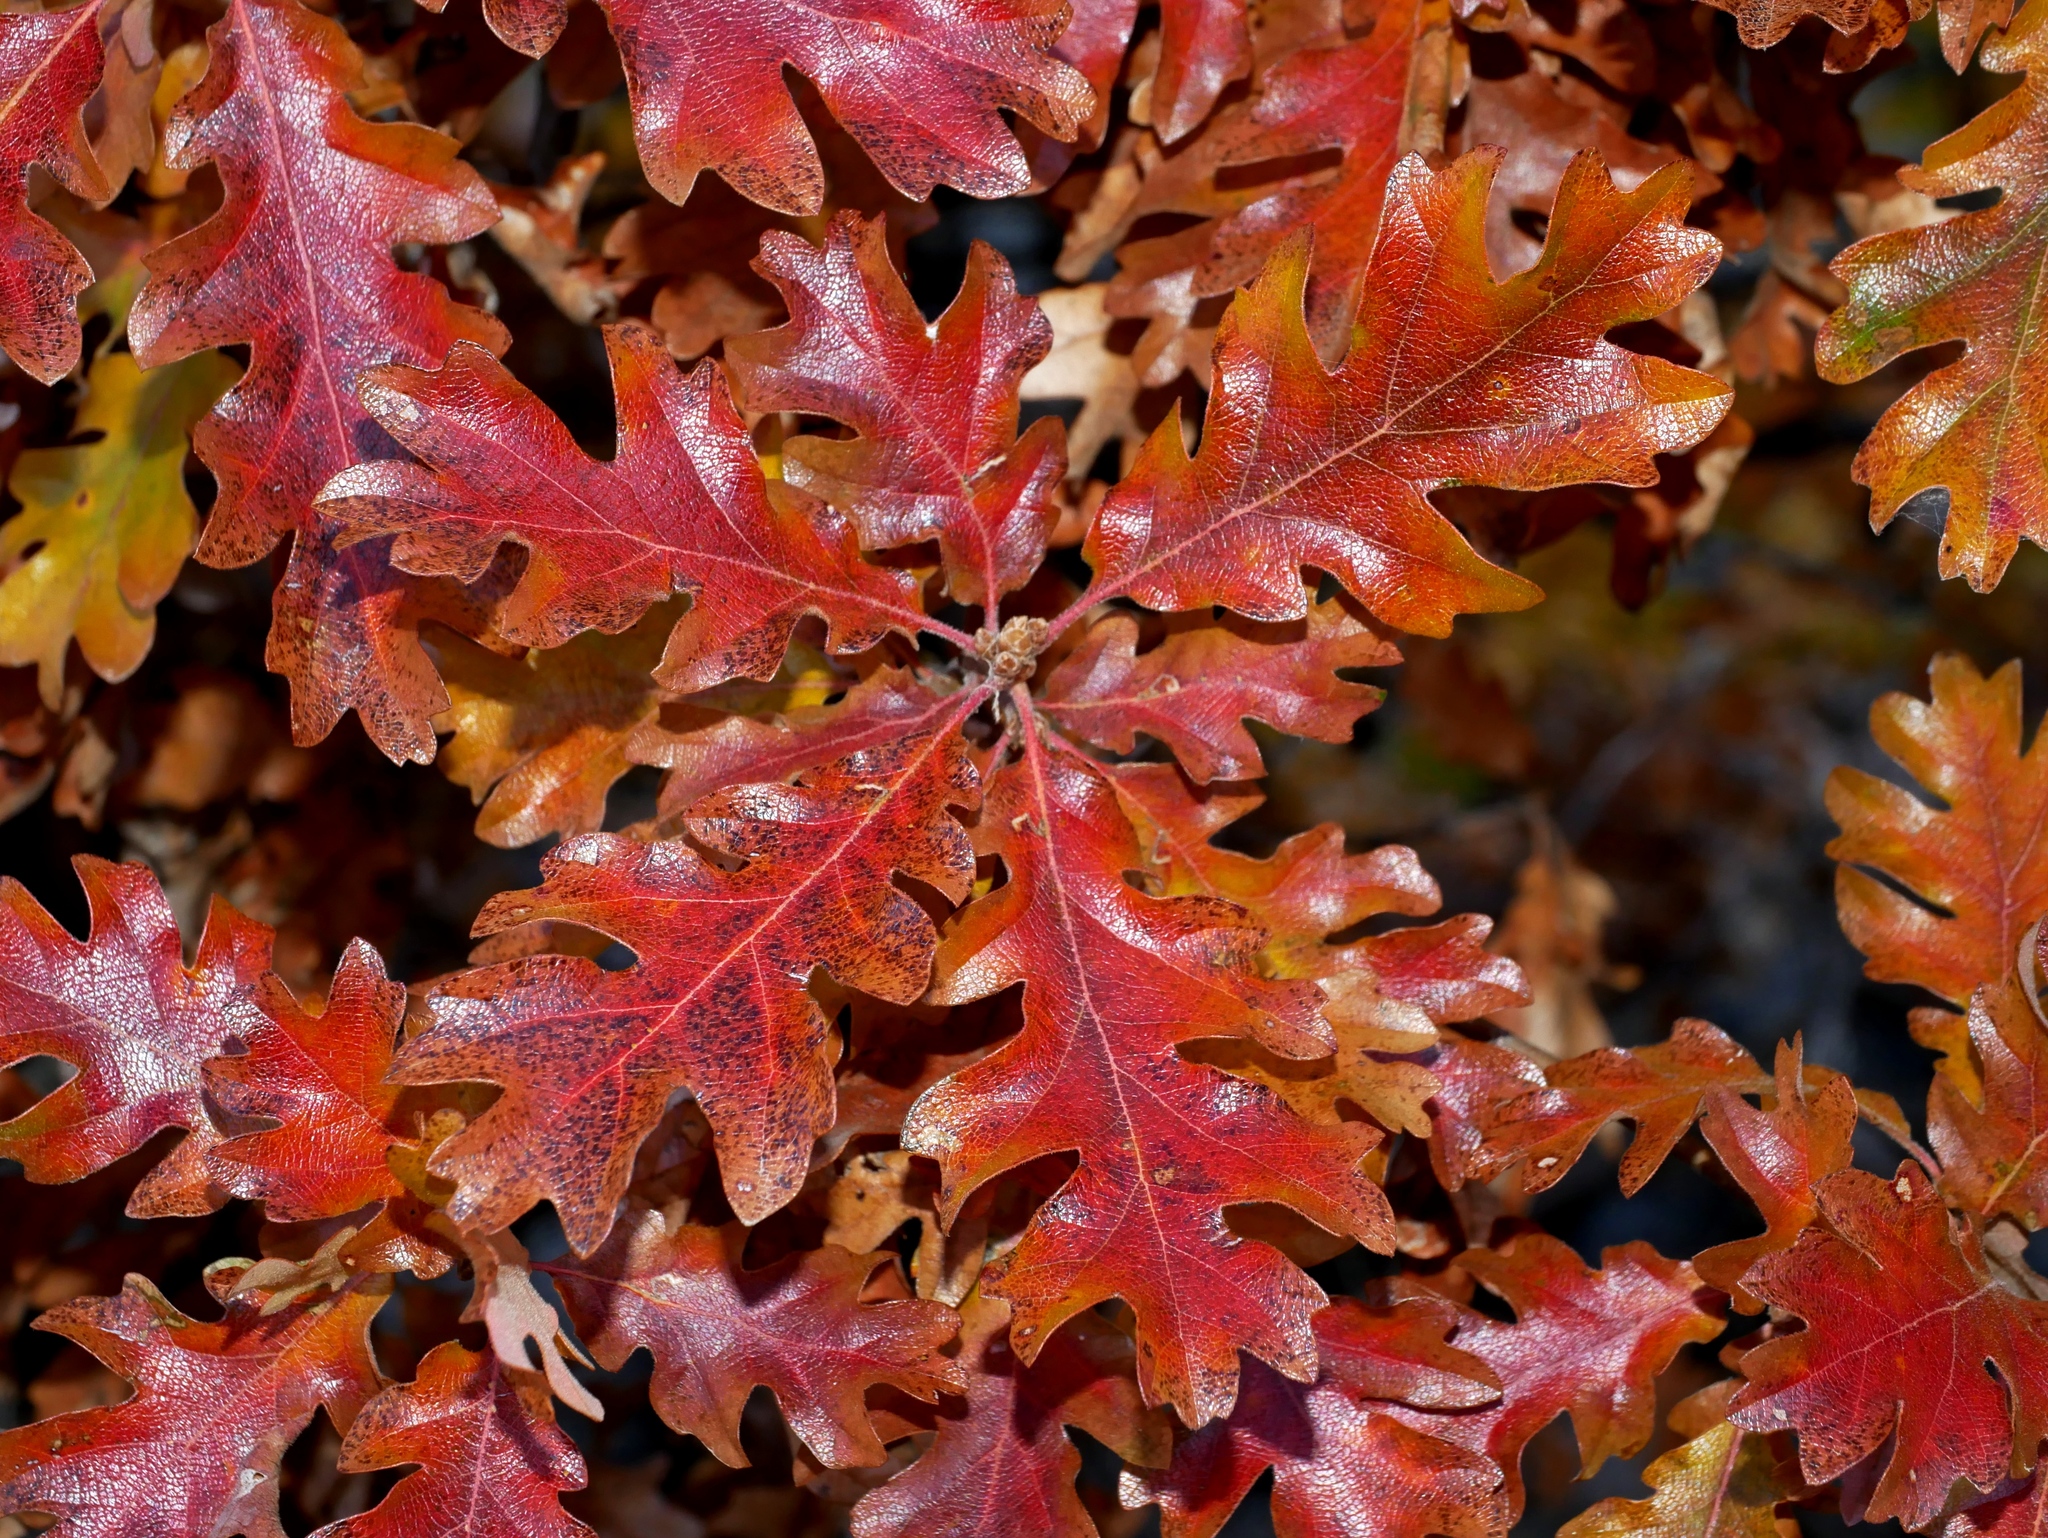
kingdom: Plantae
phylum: Tracheophyta
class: Magnoliopsida
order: Fagales
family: Fagaceae
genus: Quercus
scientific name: Quercus garryana
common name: Garry oak
